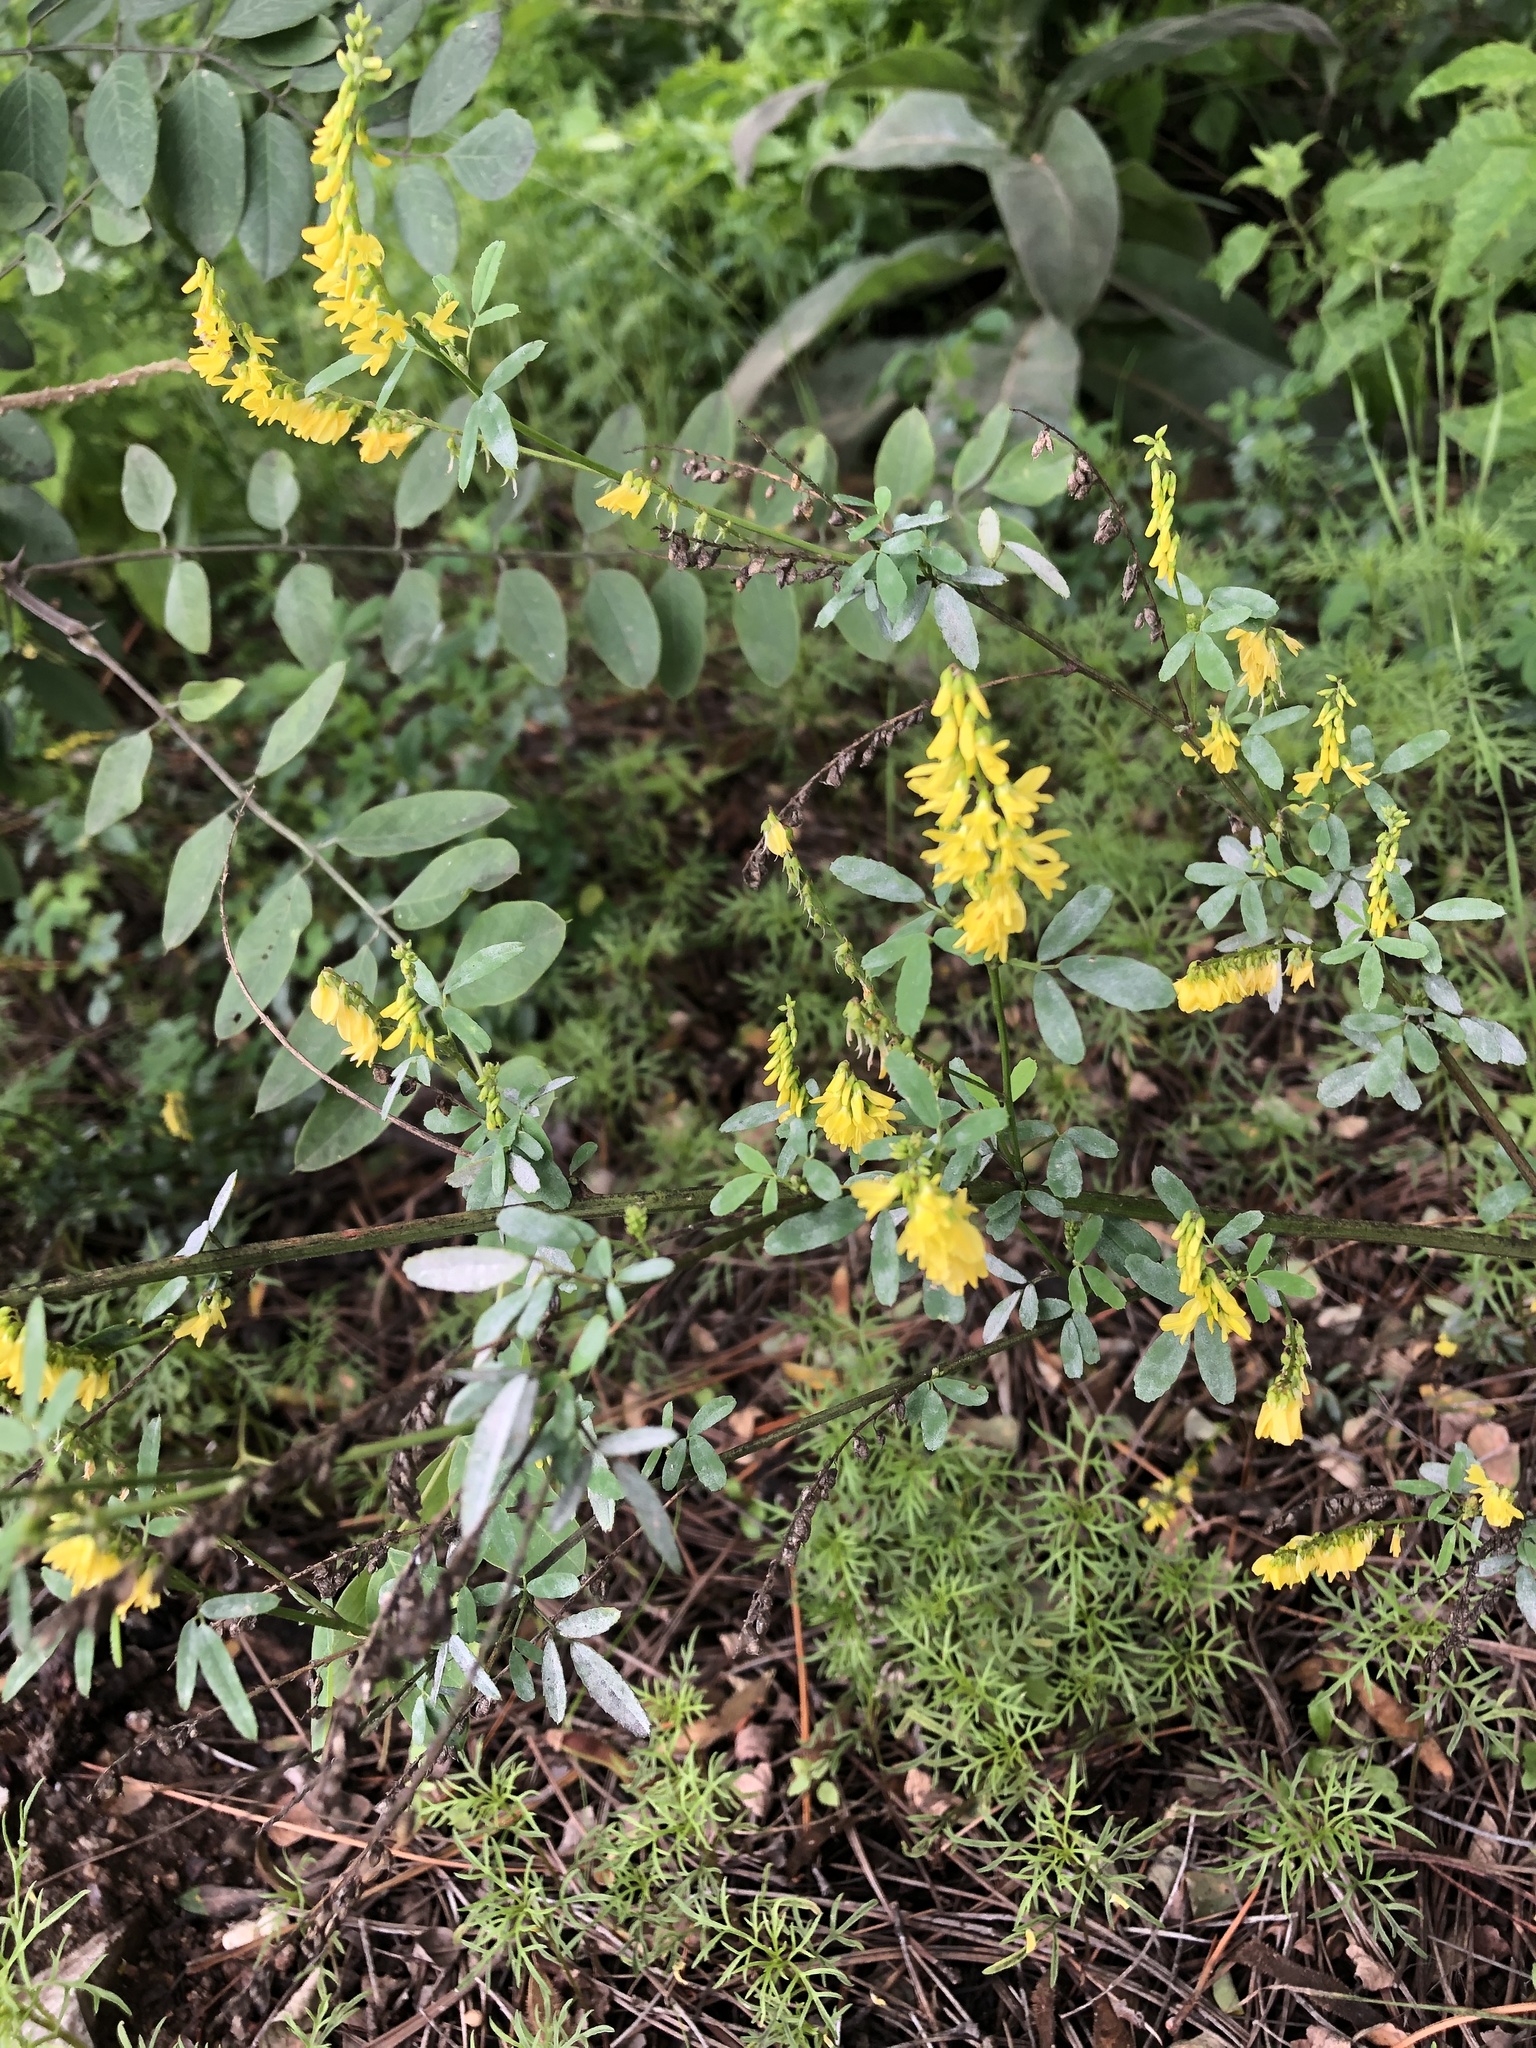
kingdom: Plantae
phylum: Tracheophyta
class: Magnoliopsida
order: Fabales
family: Fabaceae
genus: Melilotus
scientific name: Melilotus officinalis
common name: Sweetclover
